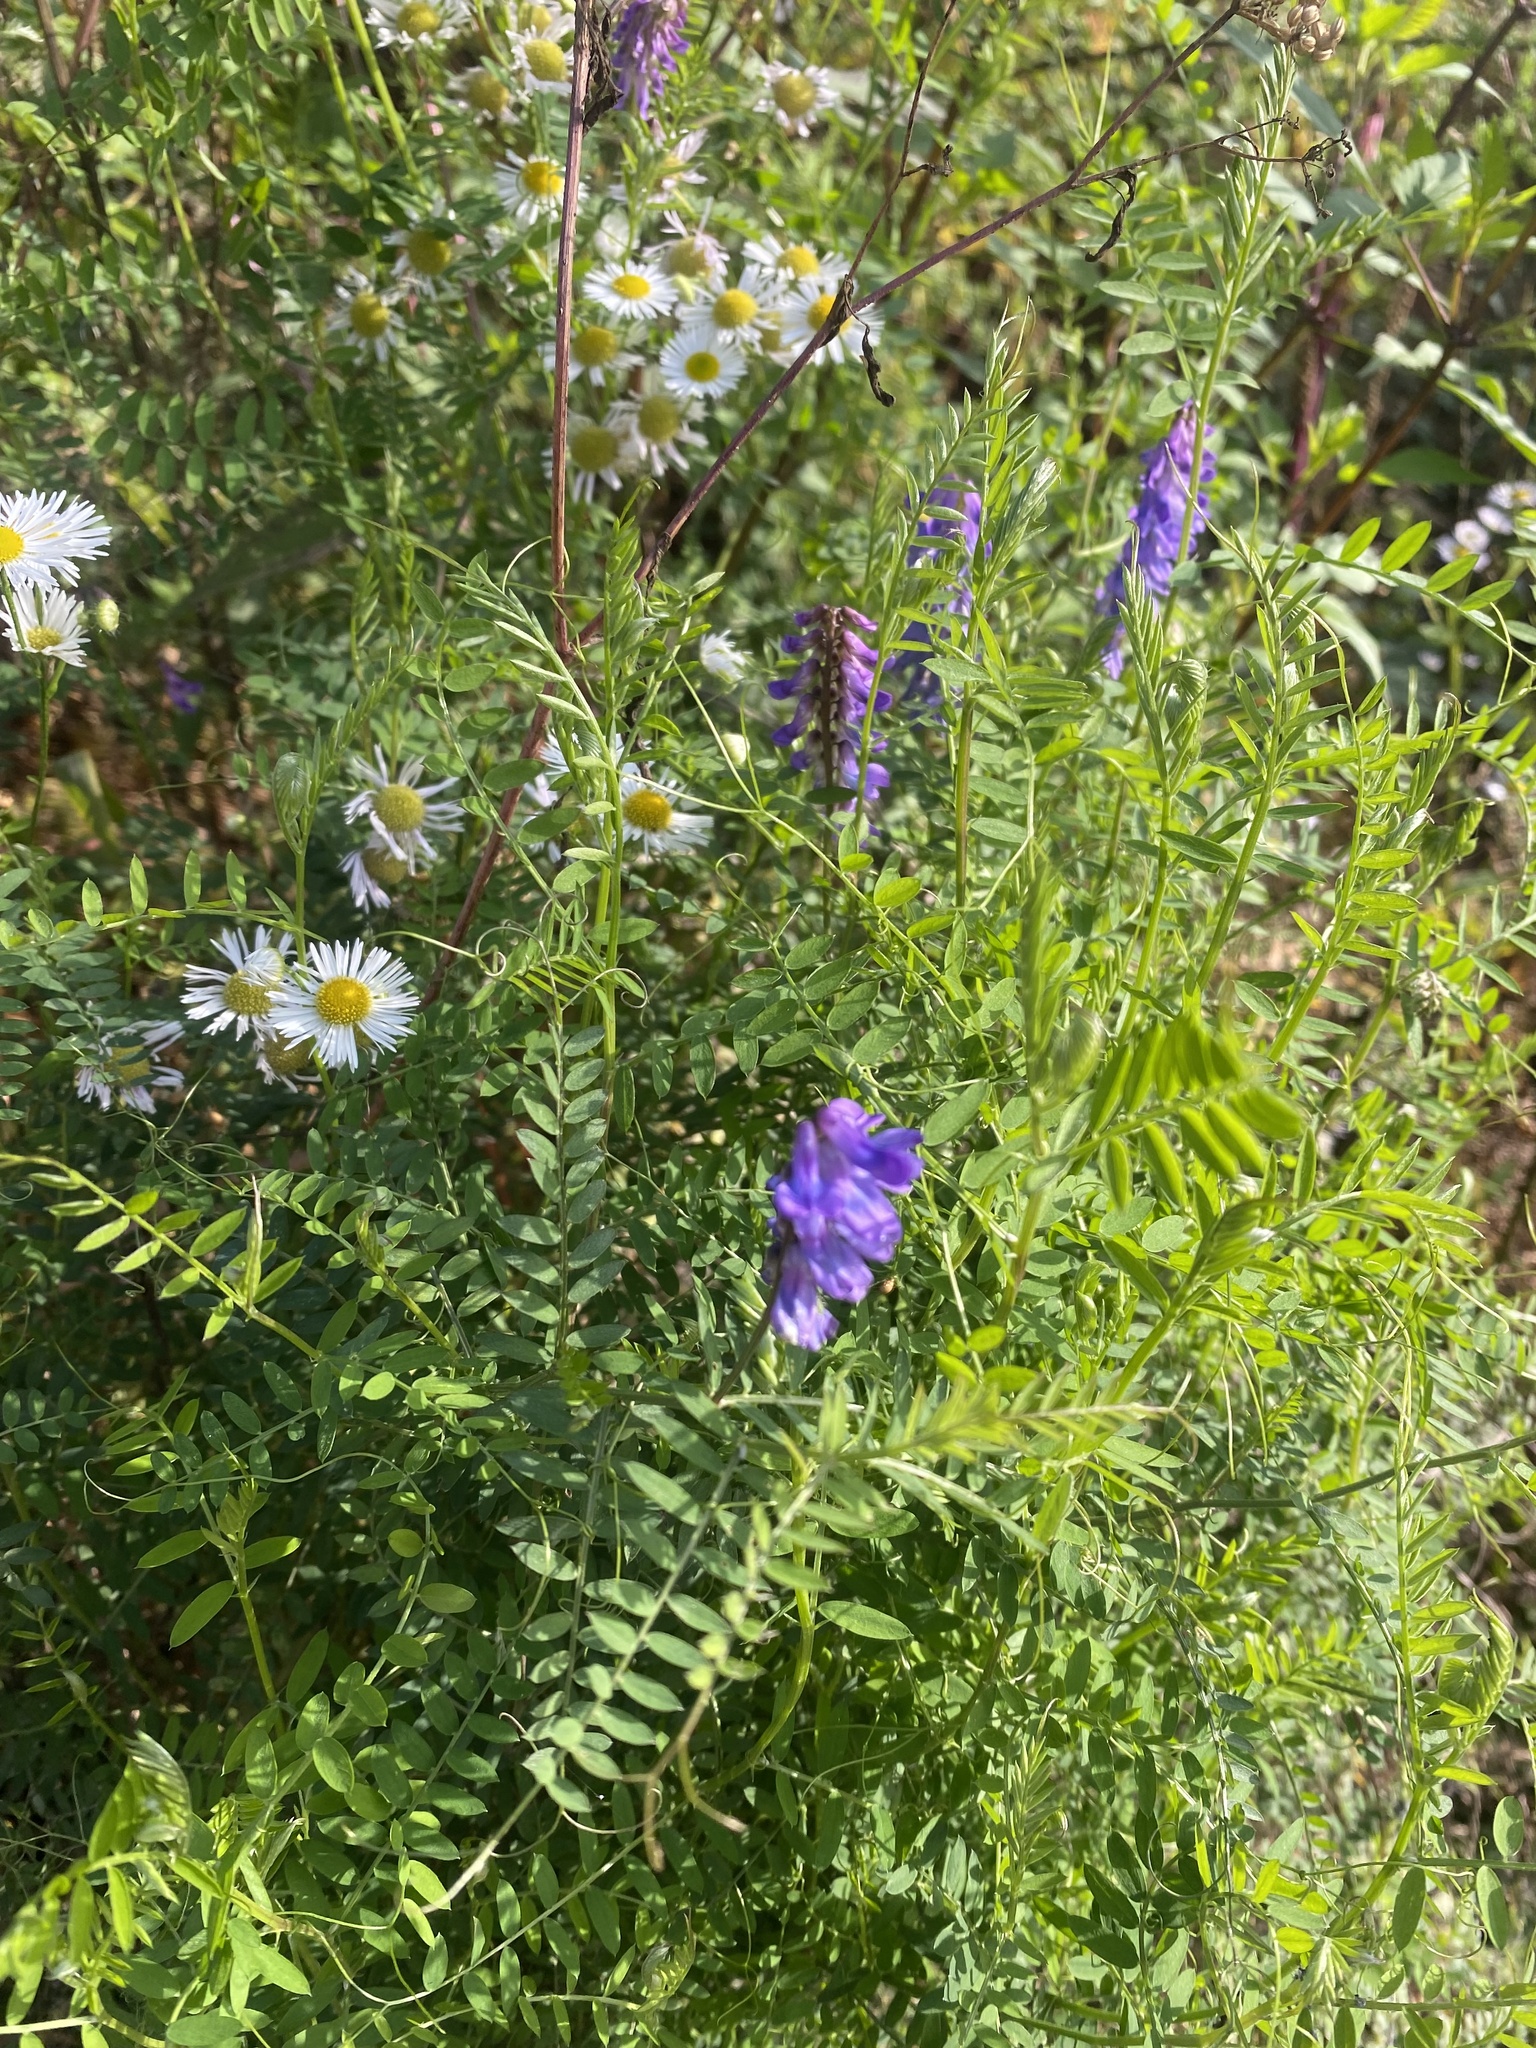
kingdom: Plantae
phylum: Tracheophyta
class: Magnoliopsida
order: Fabales
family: Fabaceae
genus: Vicia
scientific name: Vicia cracca
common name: Bird vetch
